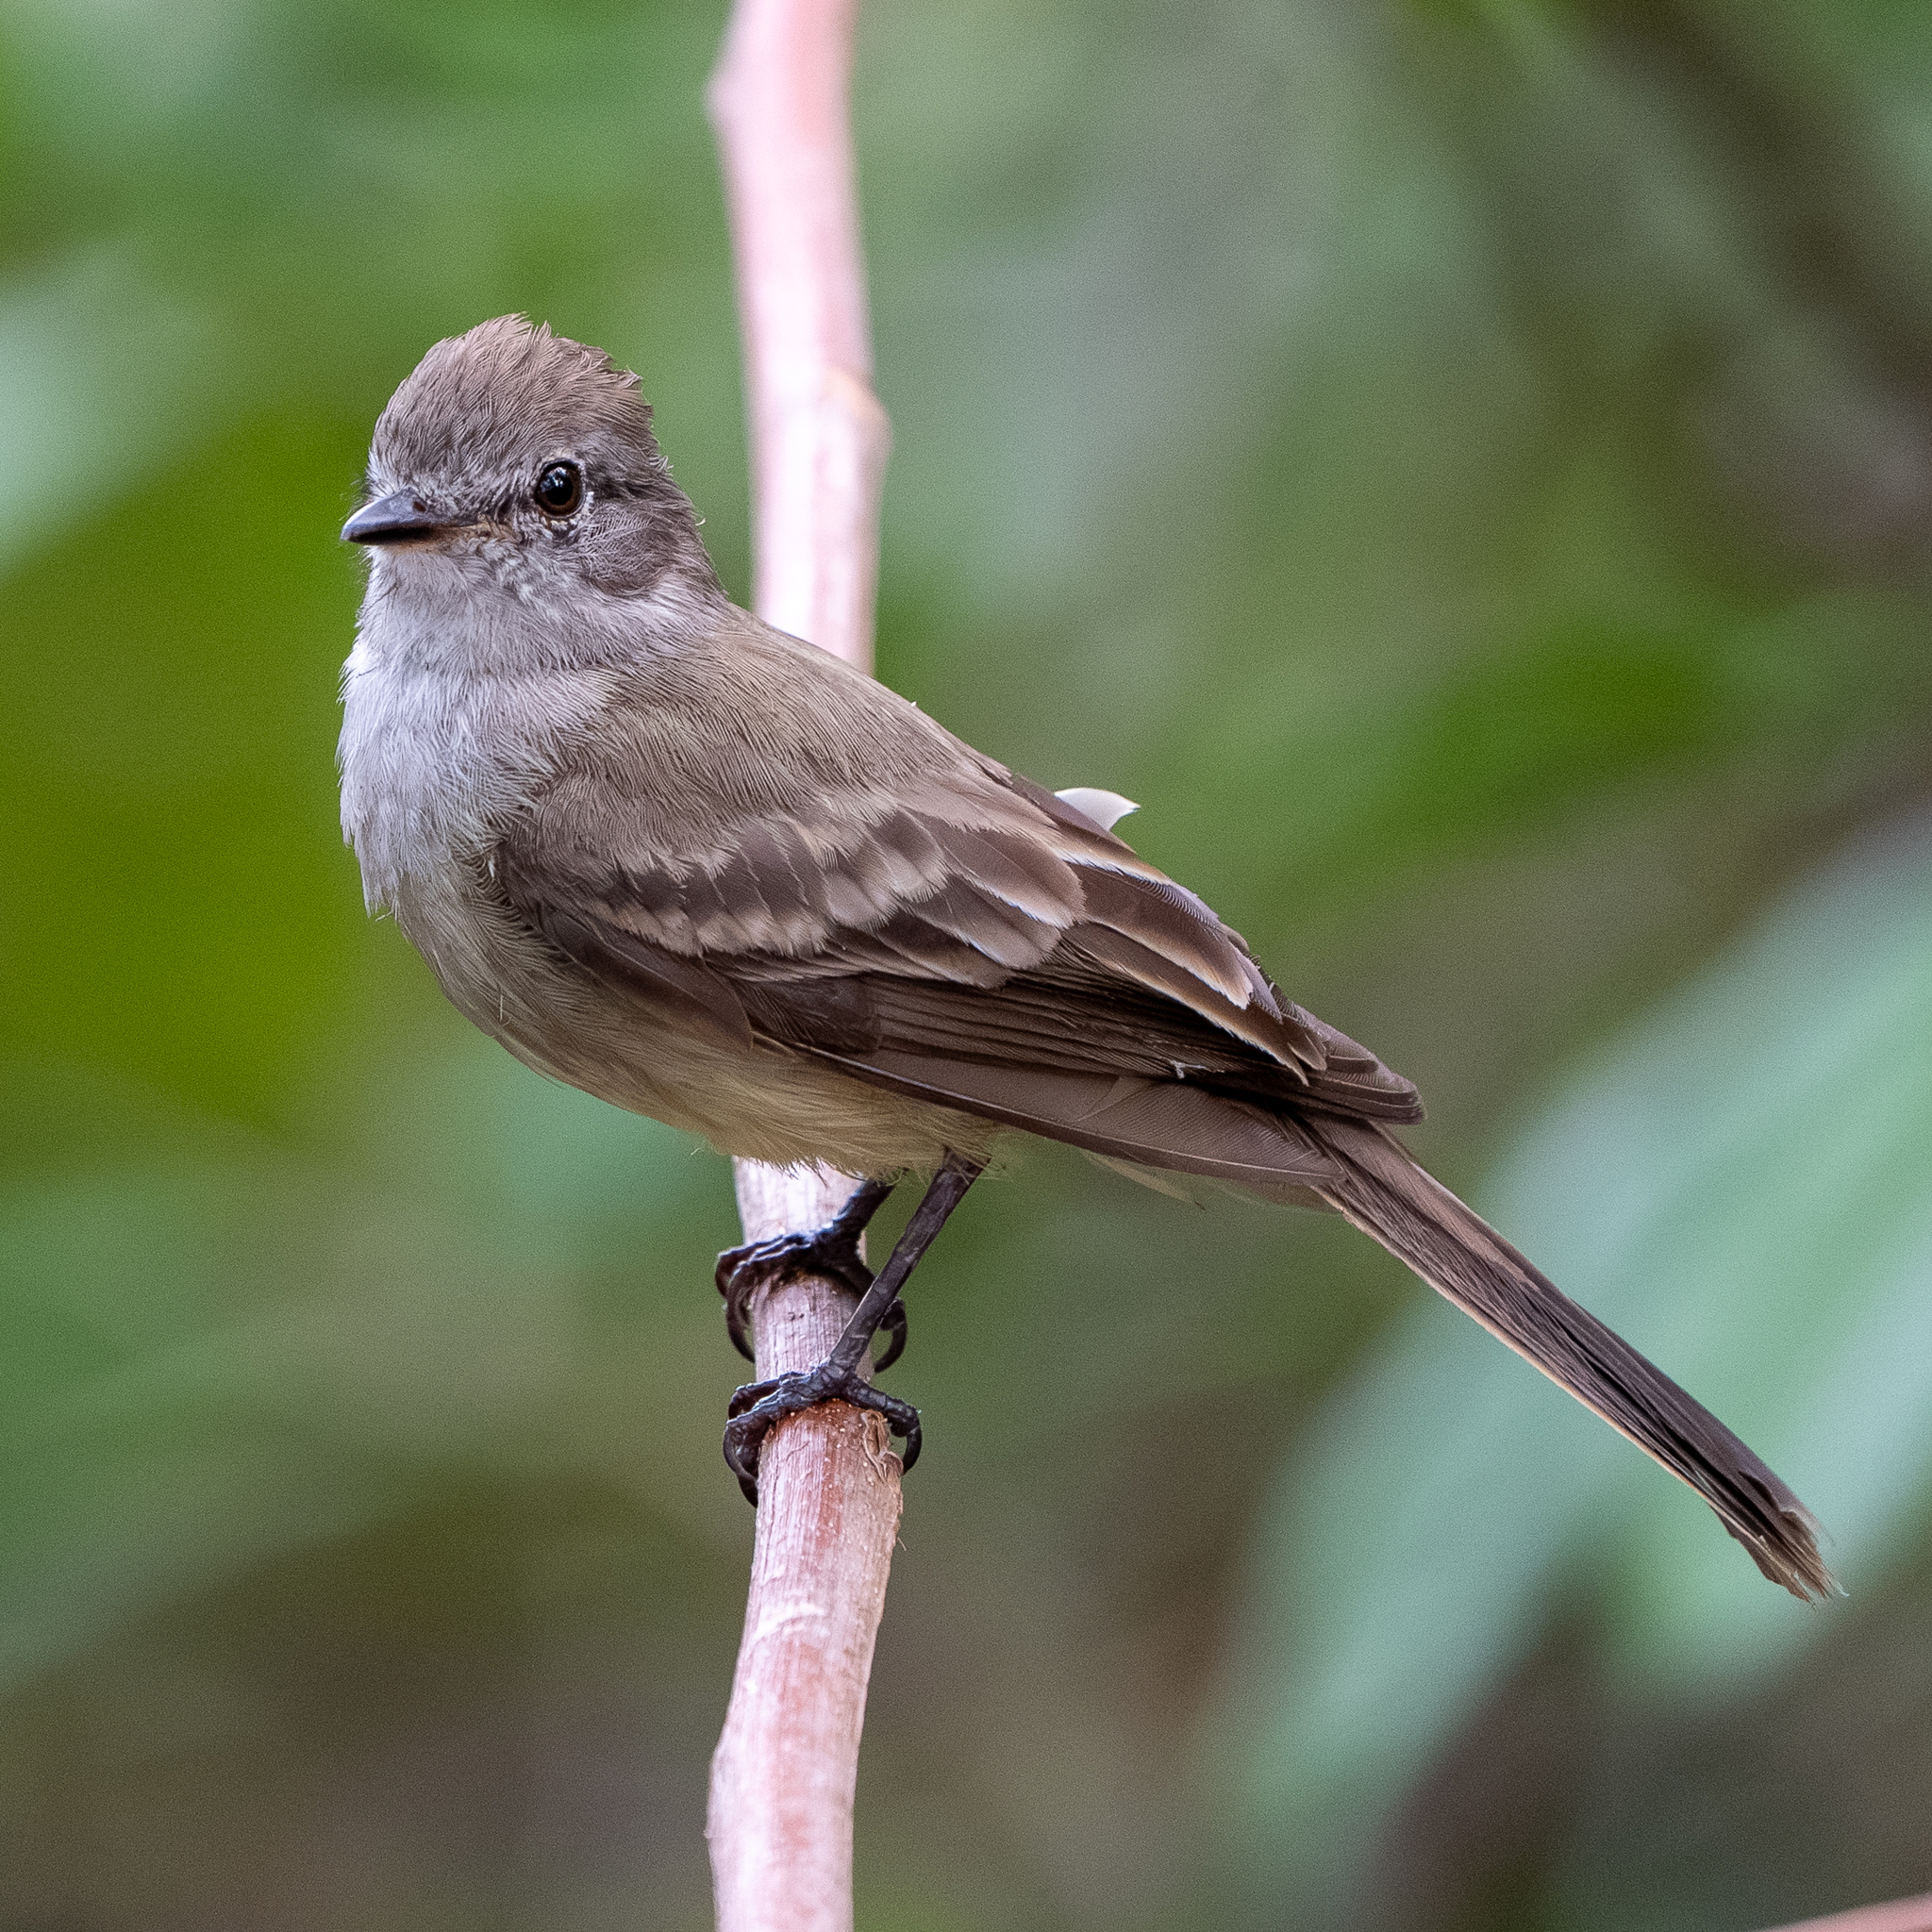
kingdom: Animalia
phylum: Chordata
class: Aves
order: Passeriformes
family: Tyrannidae
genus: Sublegatus
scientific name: Sublegatus arenarum
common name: Northern scrub-flycatcher
